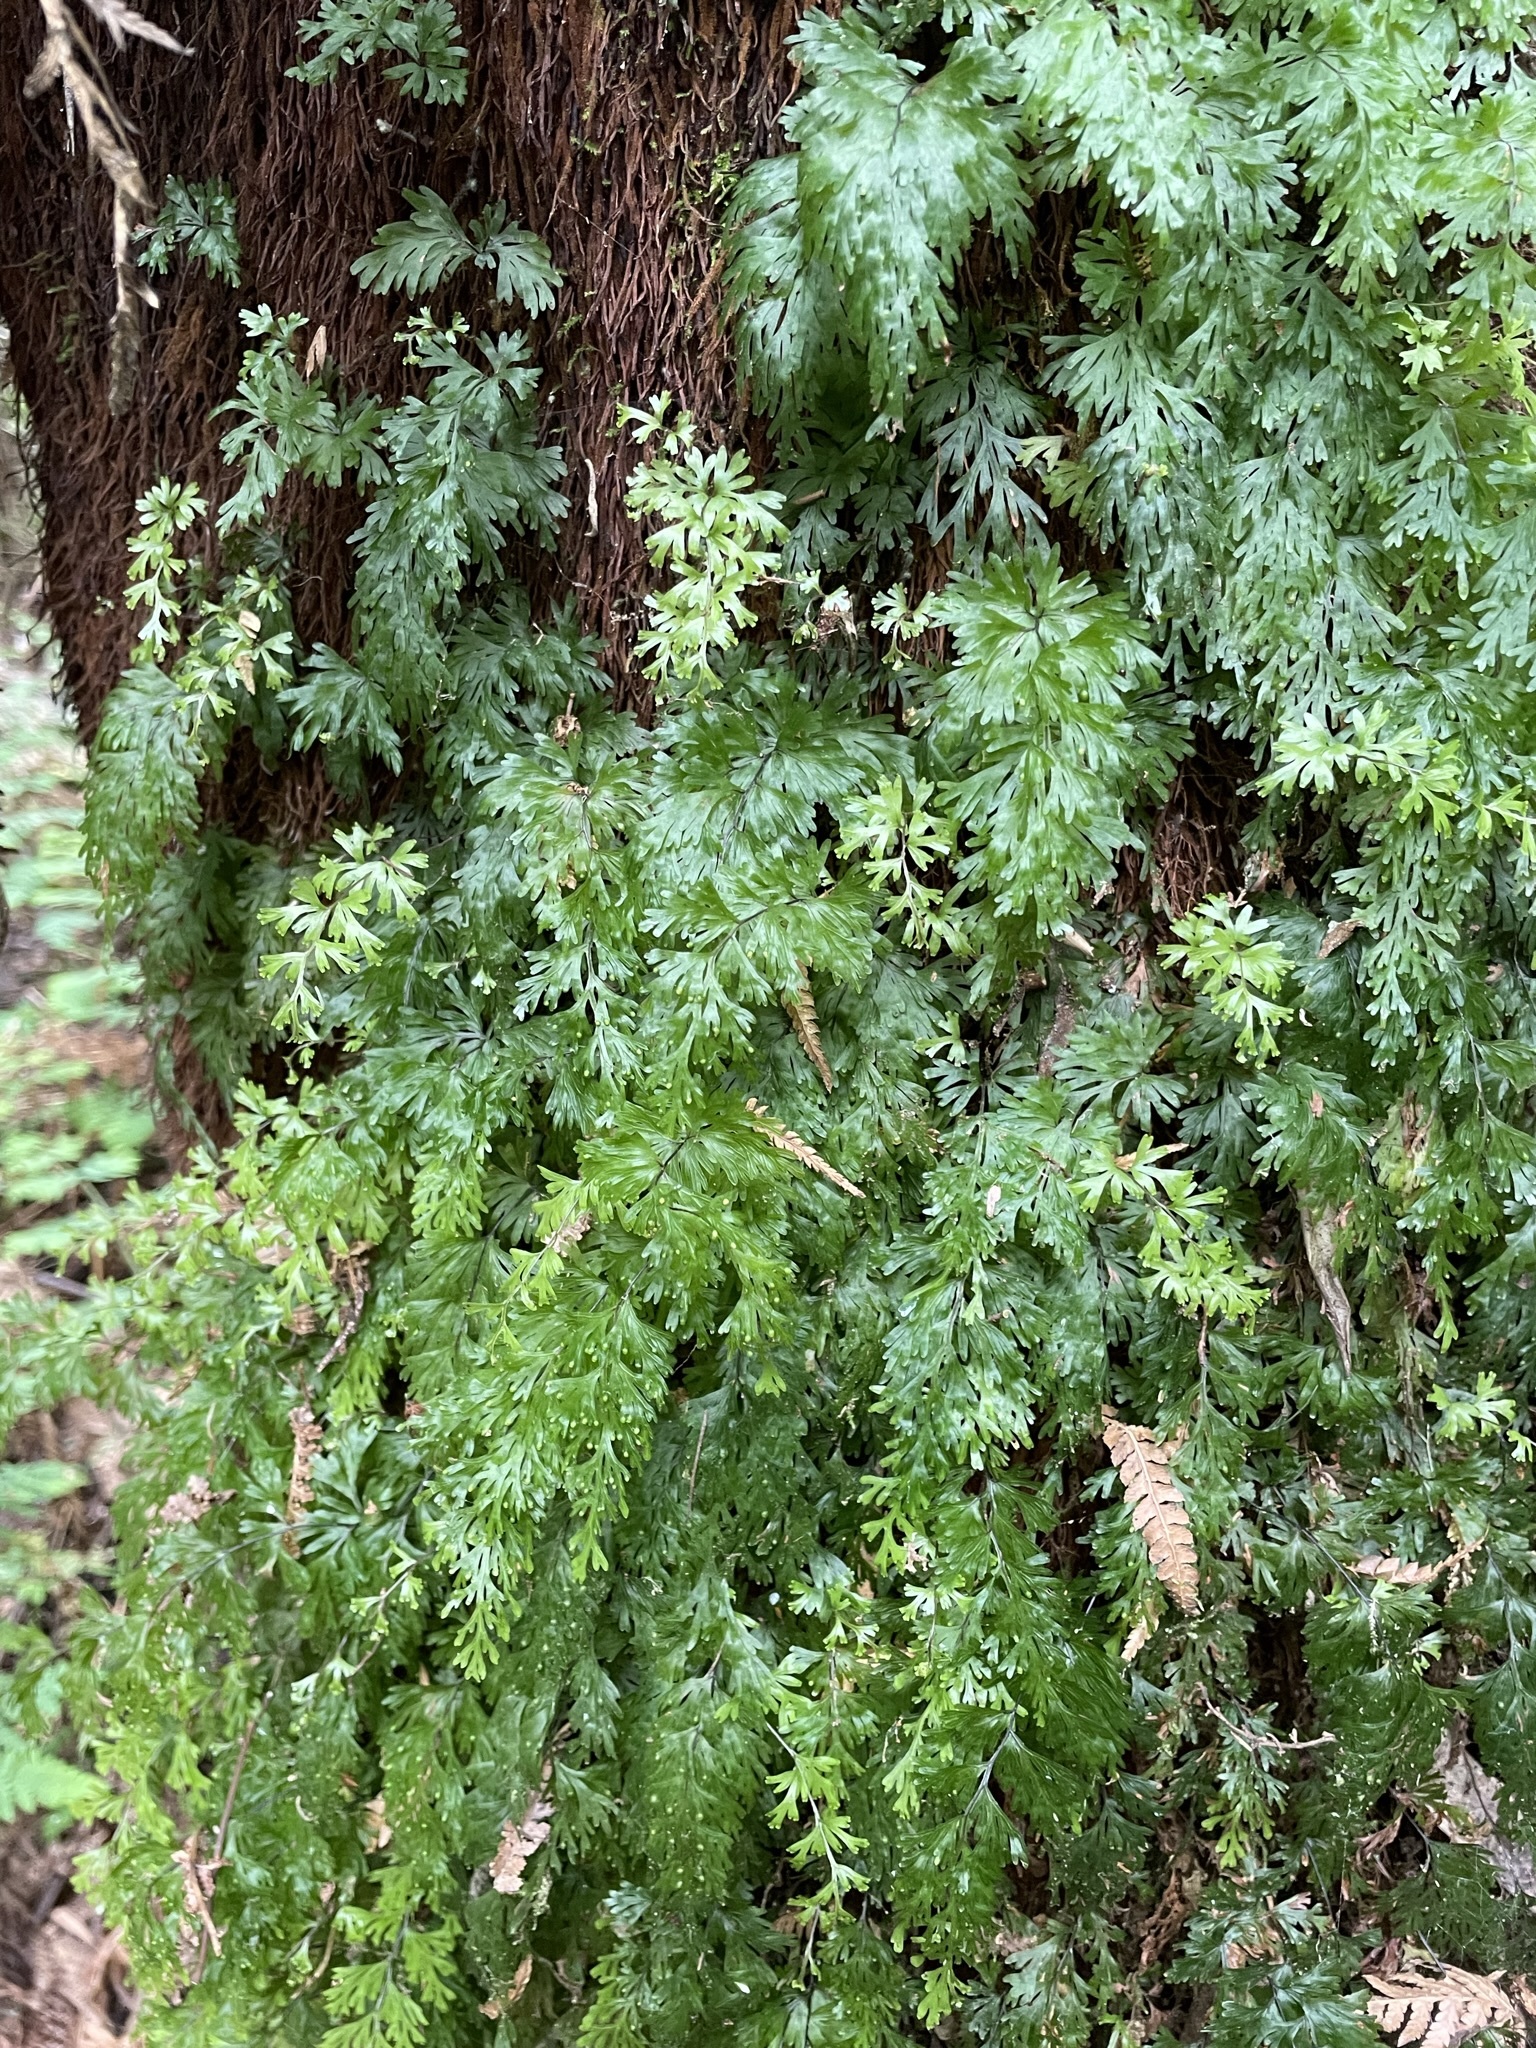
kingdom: Plantae
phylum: Tracheophyta
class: Polypodiopsida
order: Hymenophyllales
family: Hymenophyllaceae
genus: Hymenophyllum
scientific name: Hymenophyllum flabellatum
